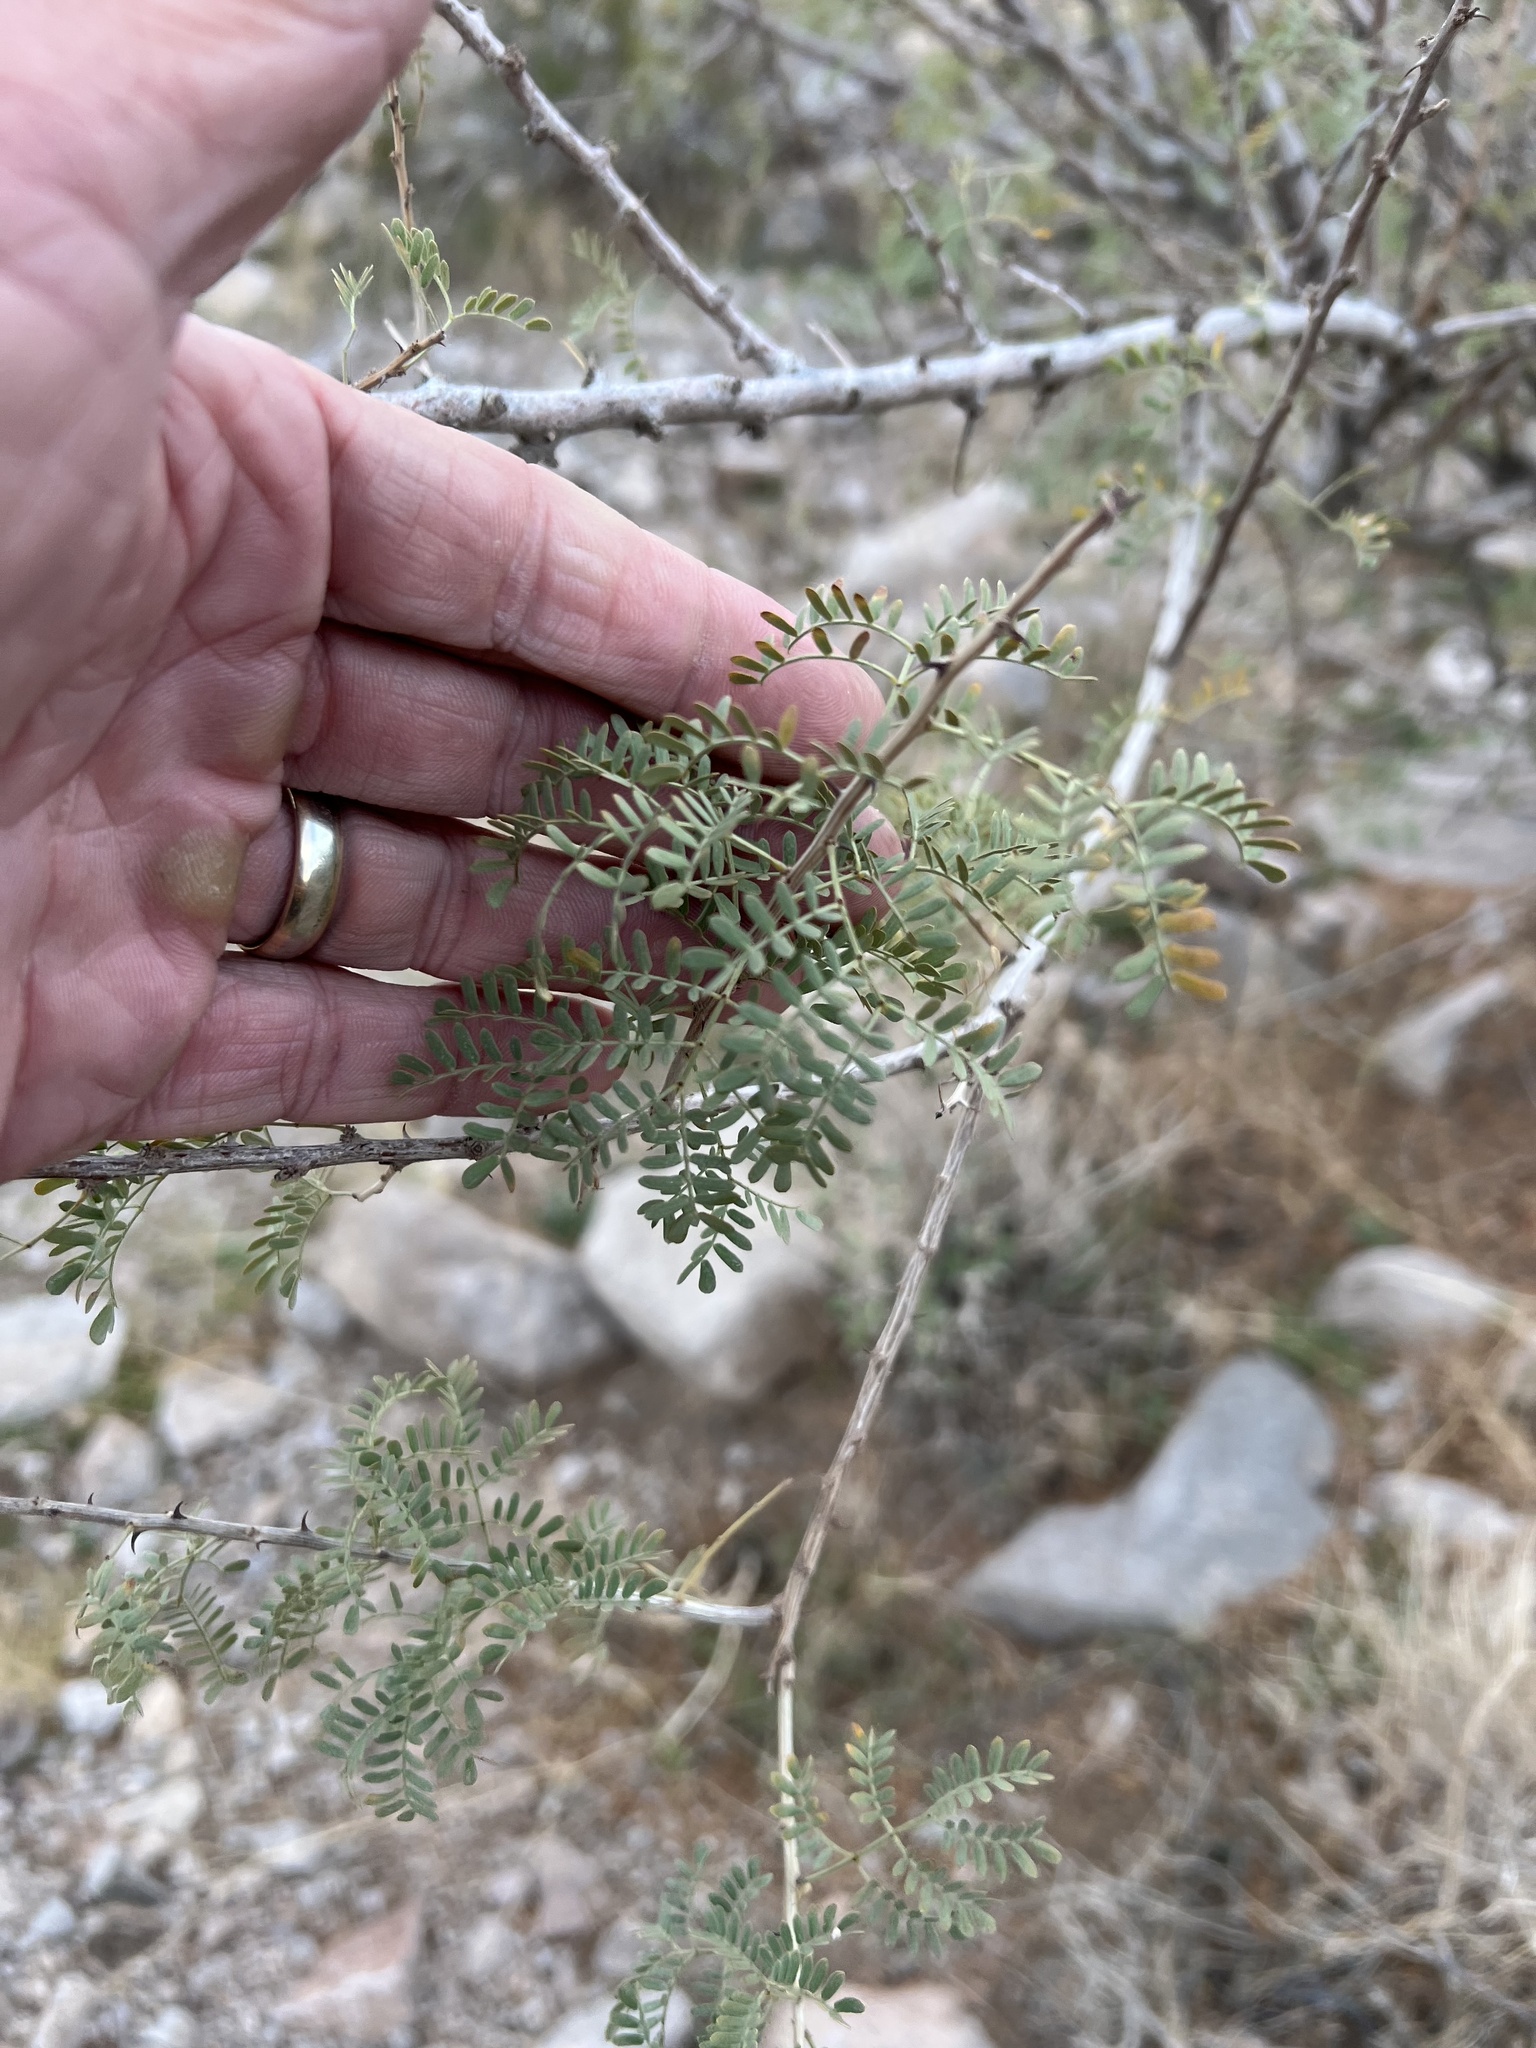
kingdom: Plantae
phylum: Tracheophyta
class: Magnoliopsida
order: Fabales
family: Fabaceae
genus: Senegalia
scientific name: Senegalia greggii
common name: Texas-mimosa
